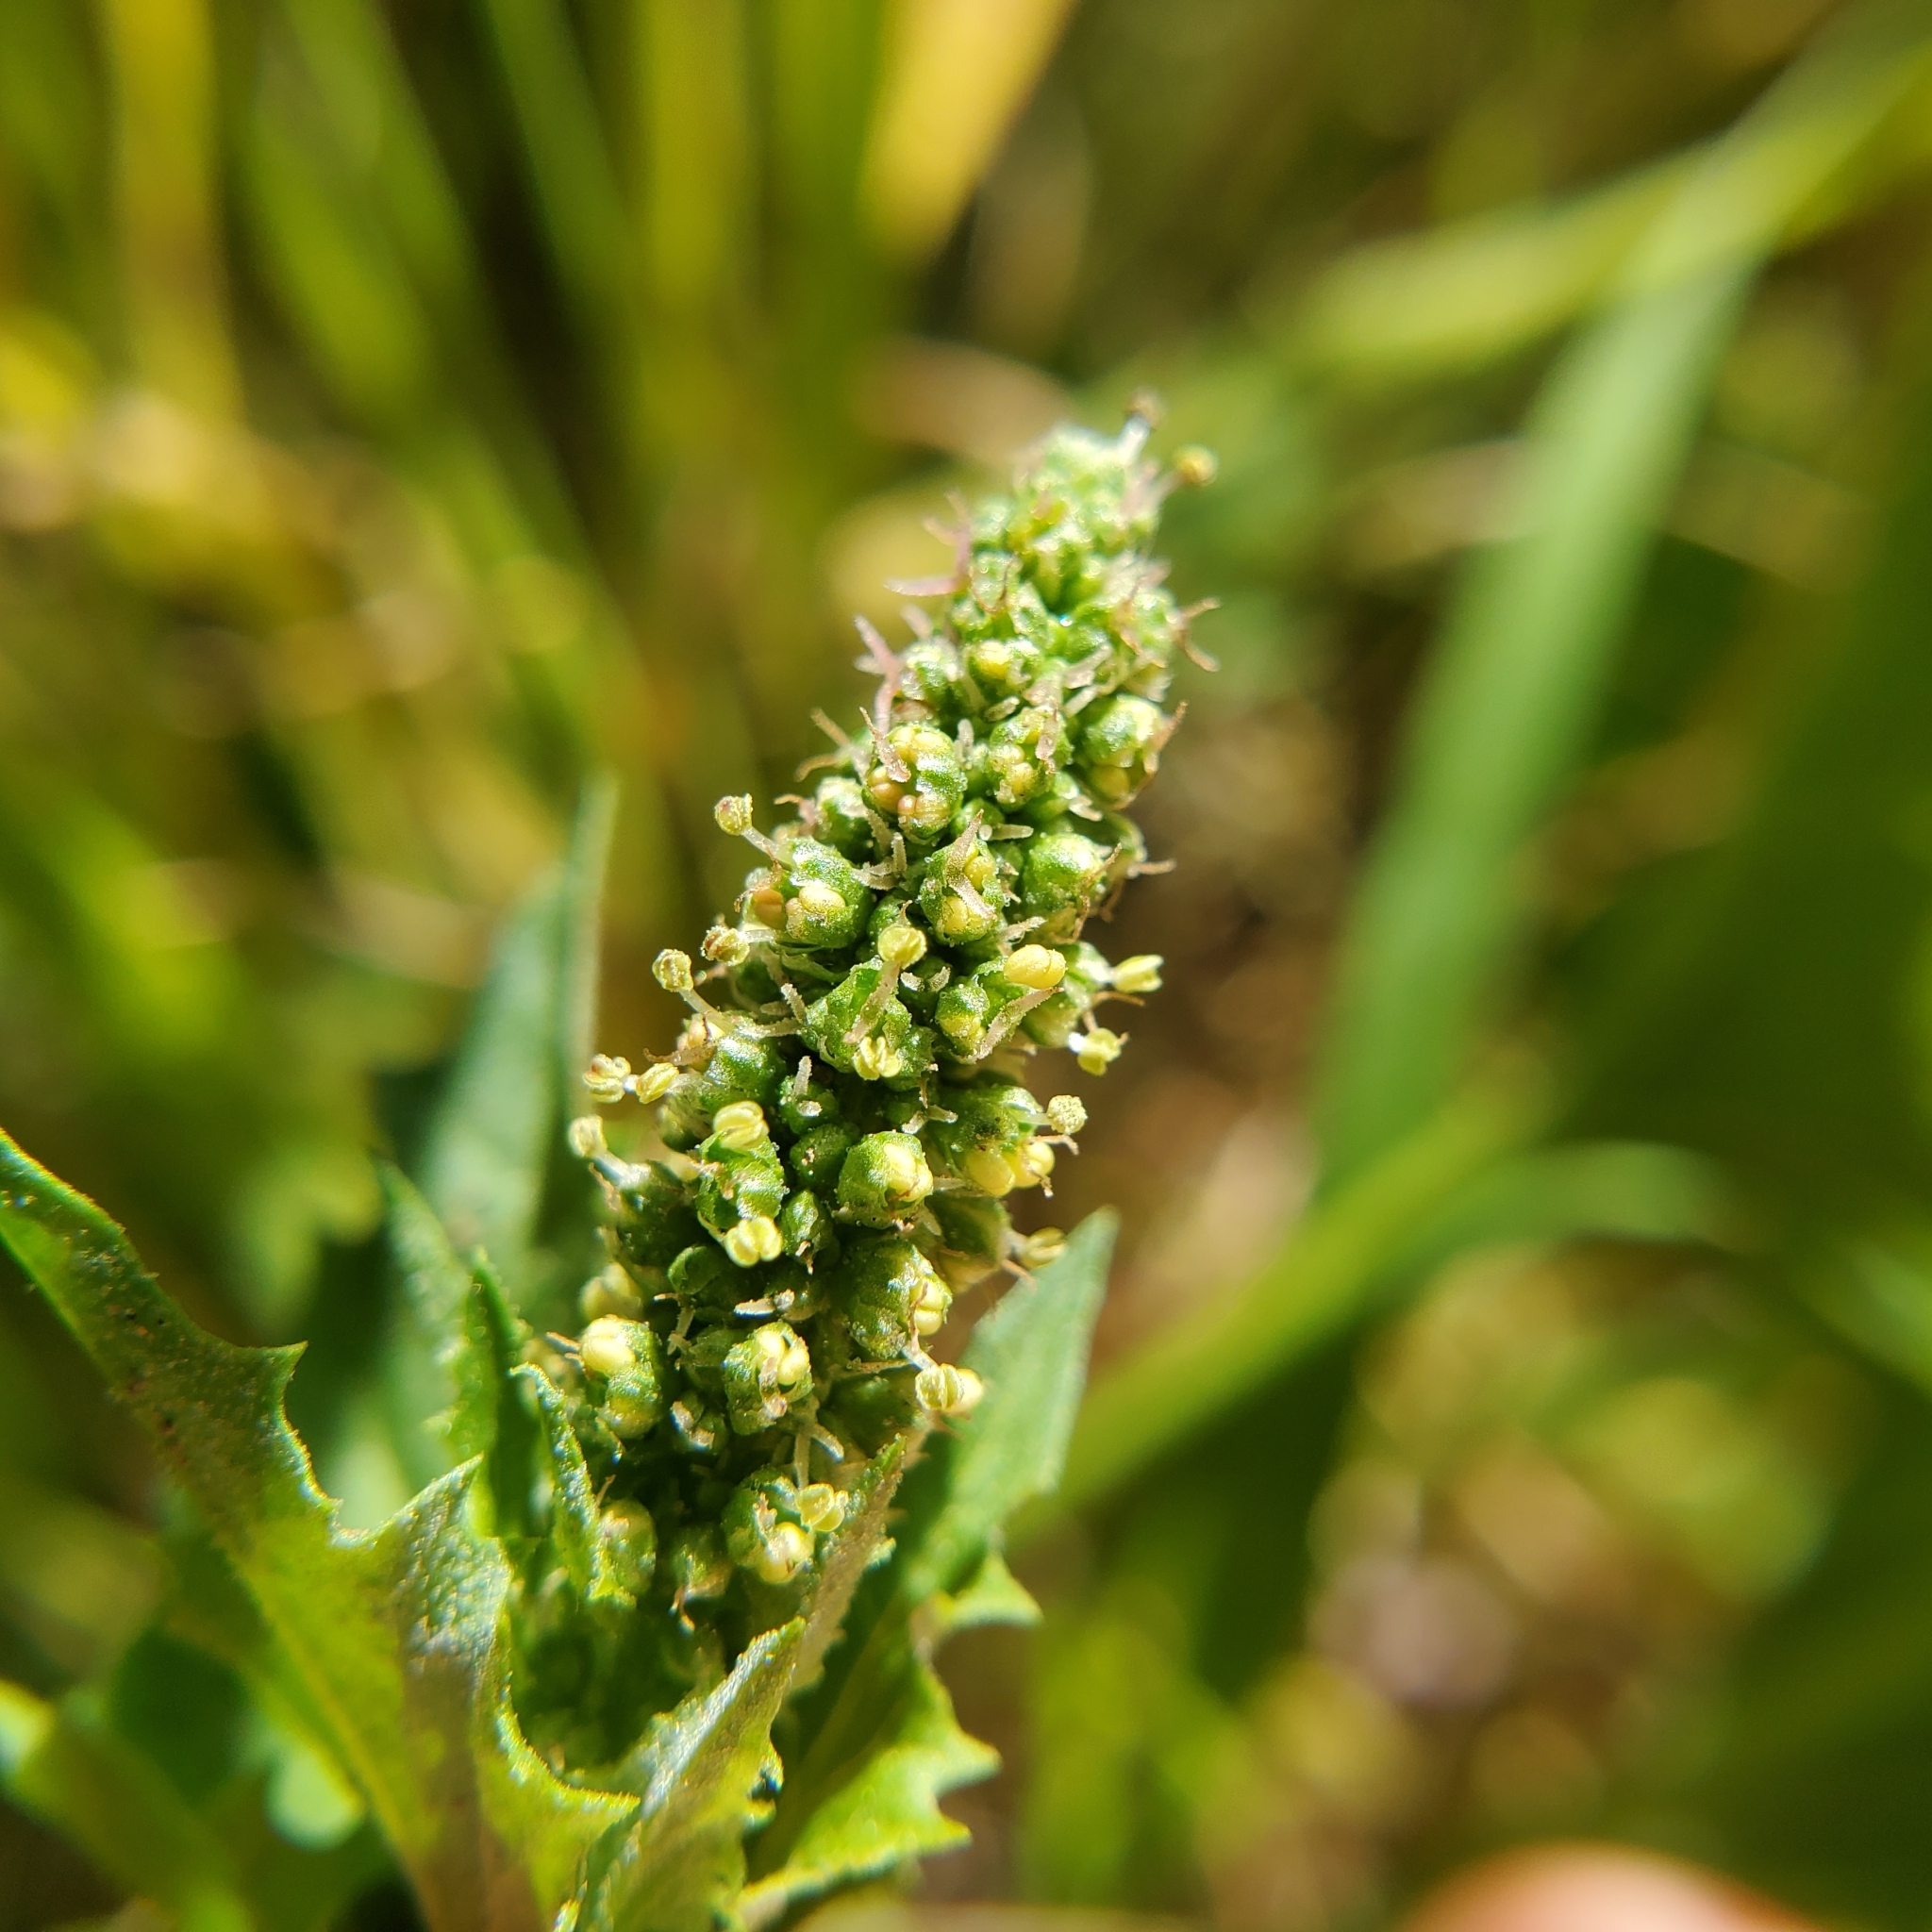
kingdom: Plantae
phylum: Tracheophyta
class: Magnoliopsida
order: Caryophyllales
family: Amaranthaceae
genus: Blitum
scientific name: Blitum californicum
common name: California goosefoot
